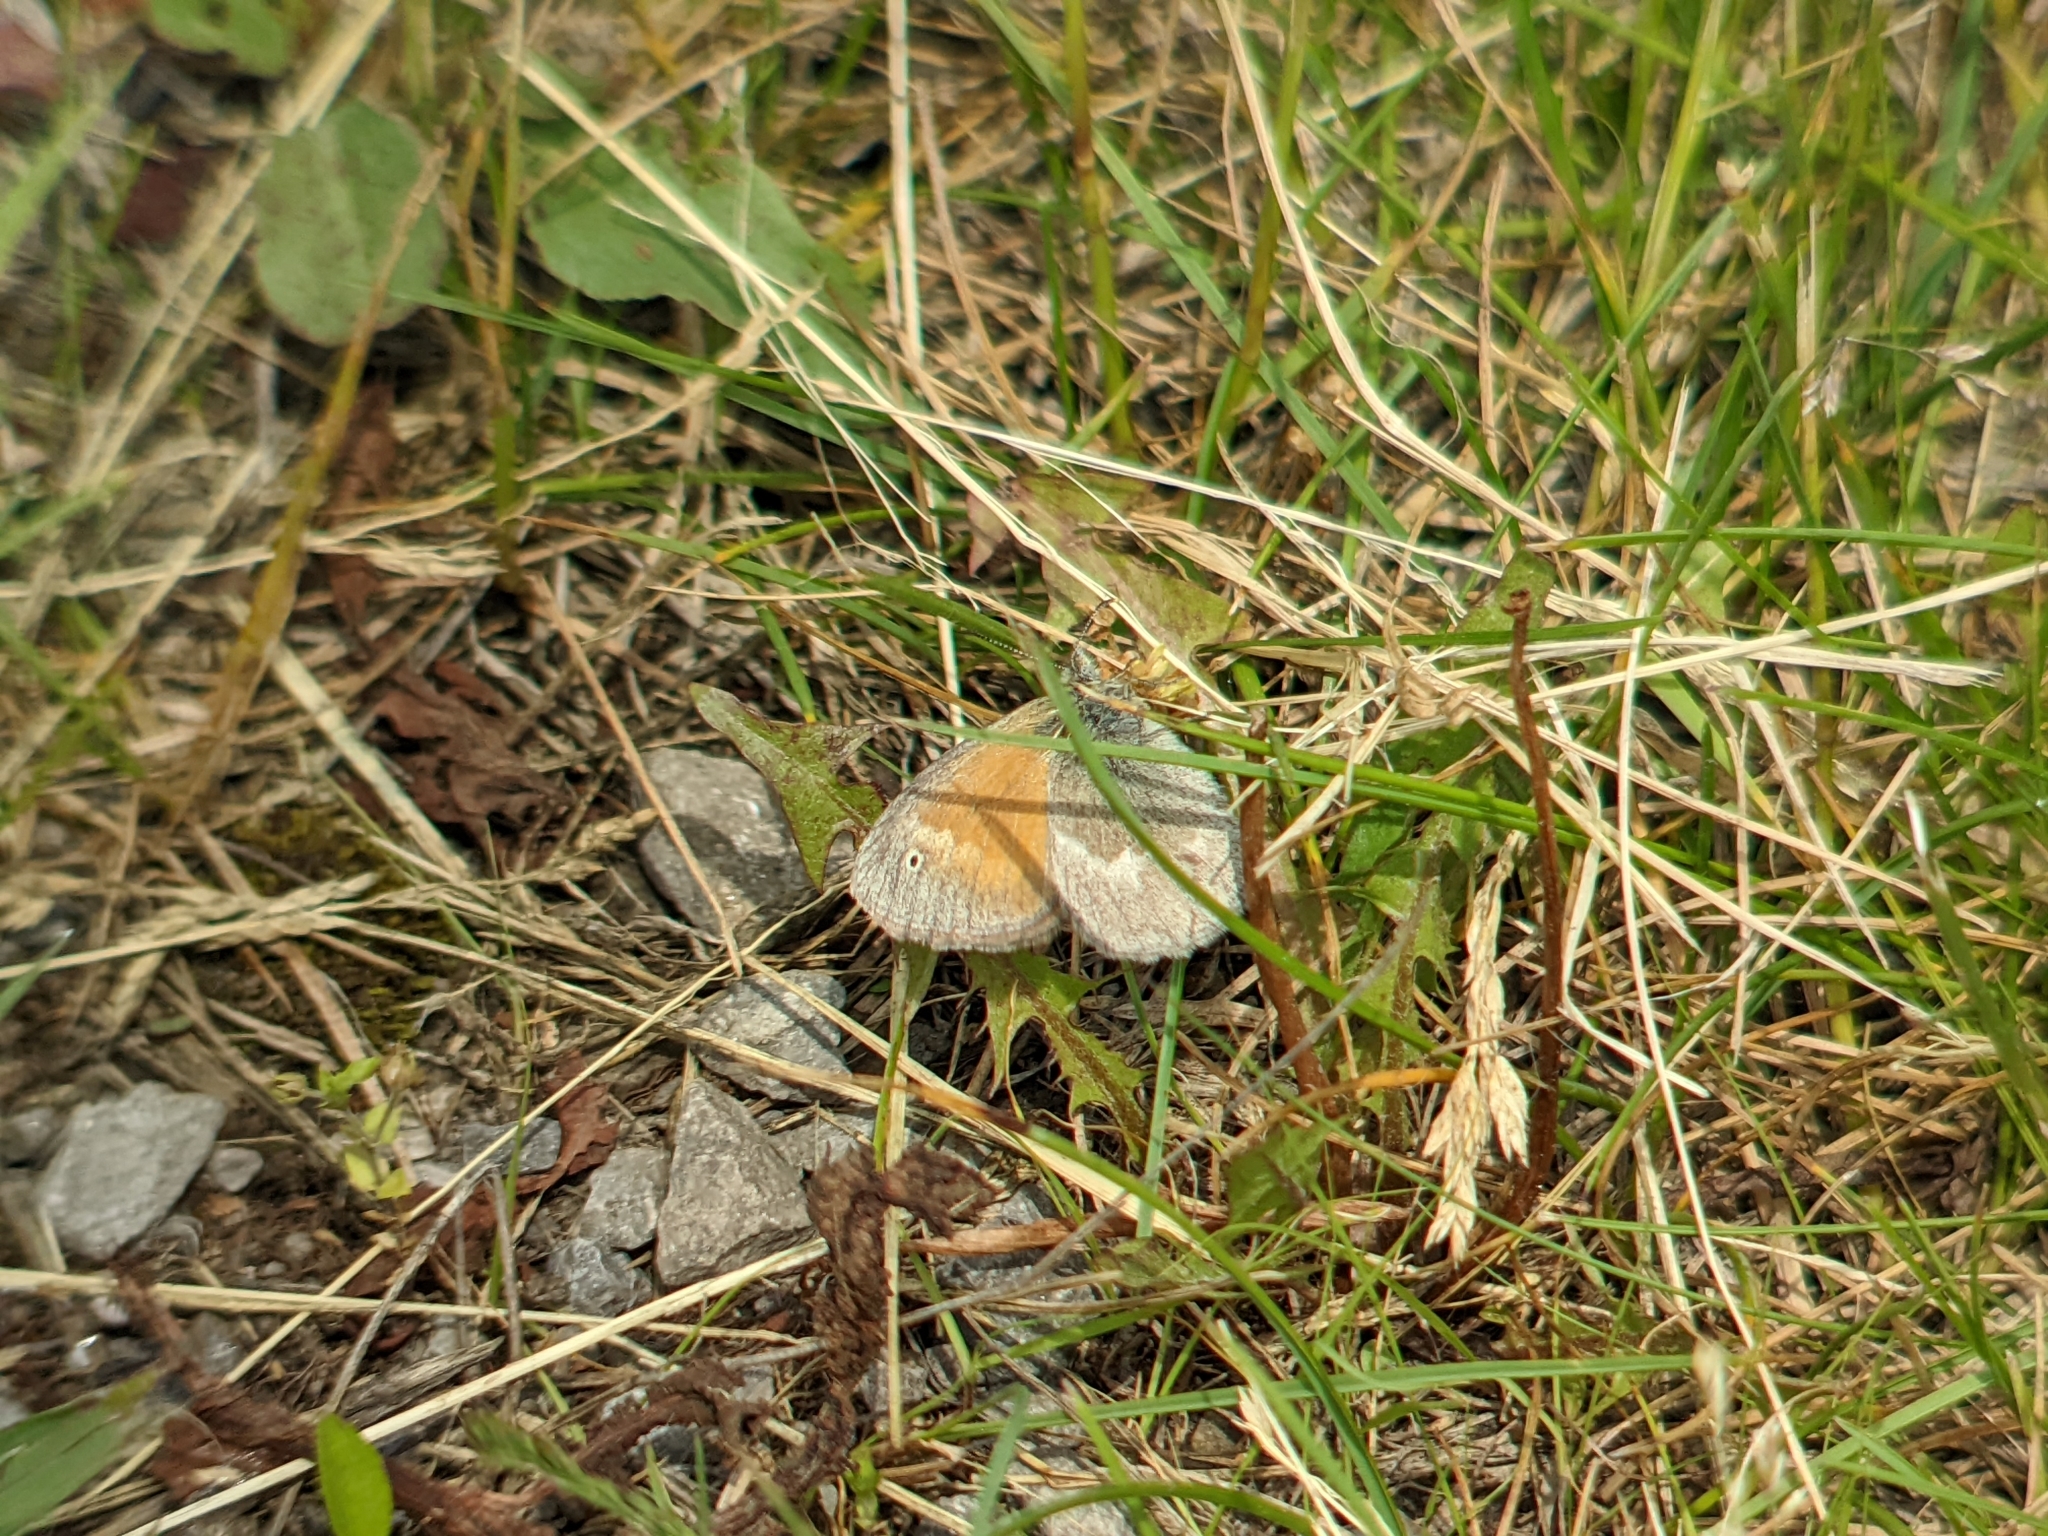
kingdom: Animalia
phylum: Arthropoda
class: Insecta
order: Lepidoptera
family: Nymphalidae
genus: Coenonympha
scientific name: Coenonympha california
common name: Common ringlet
